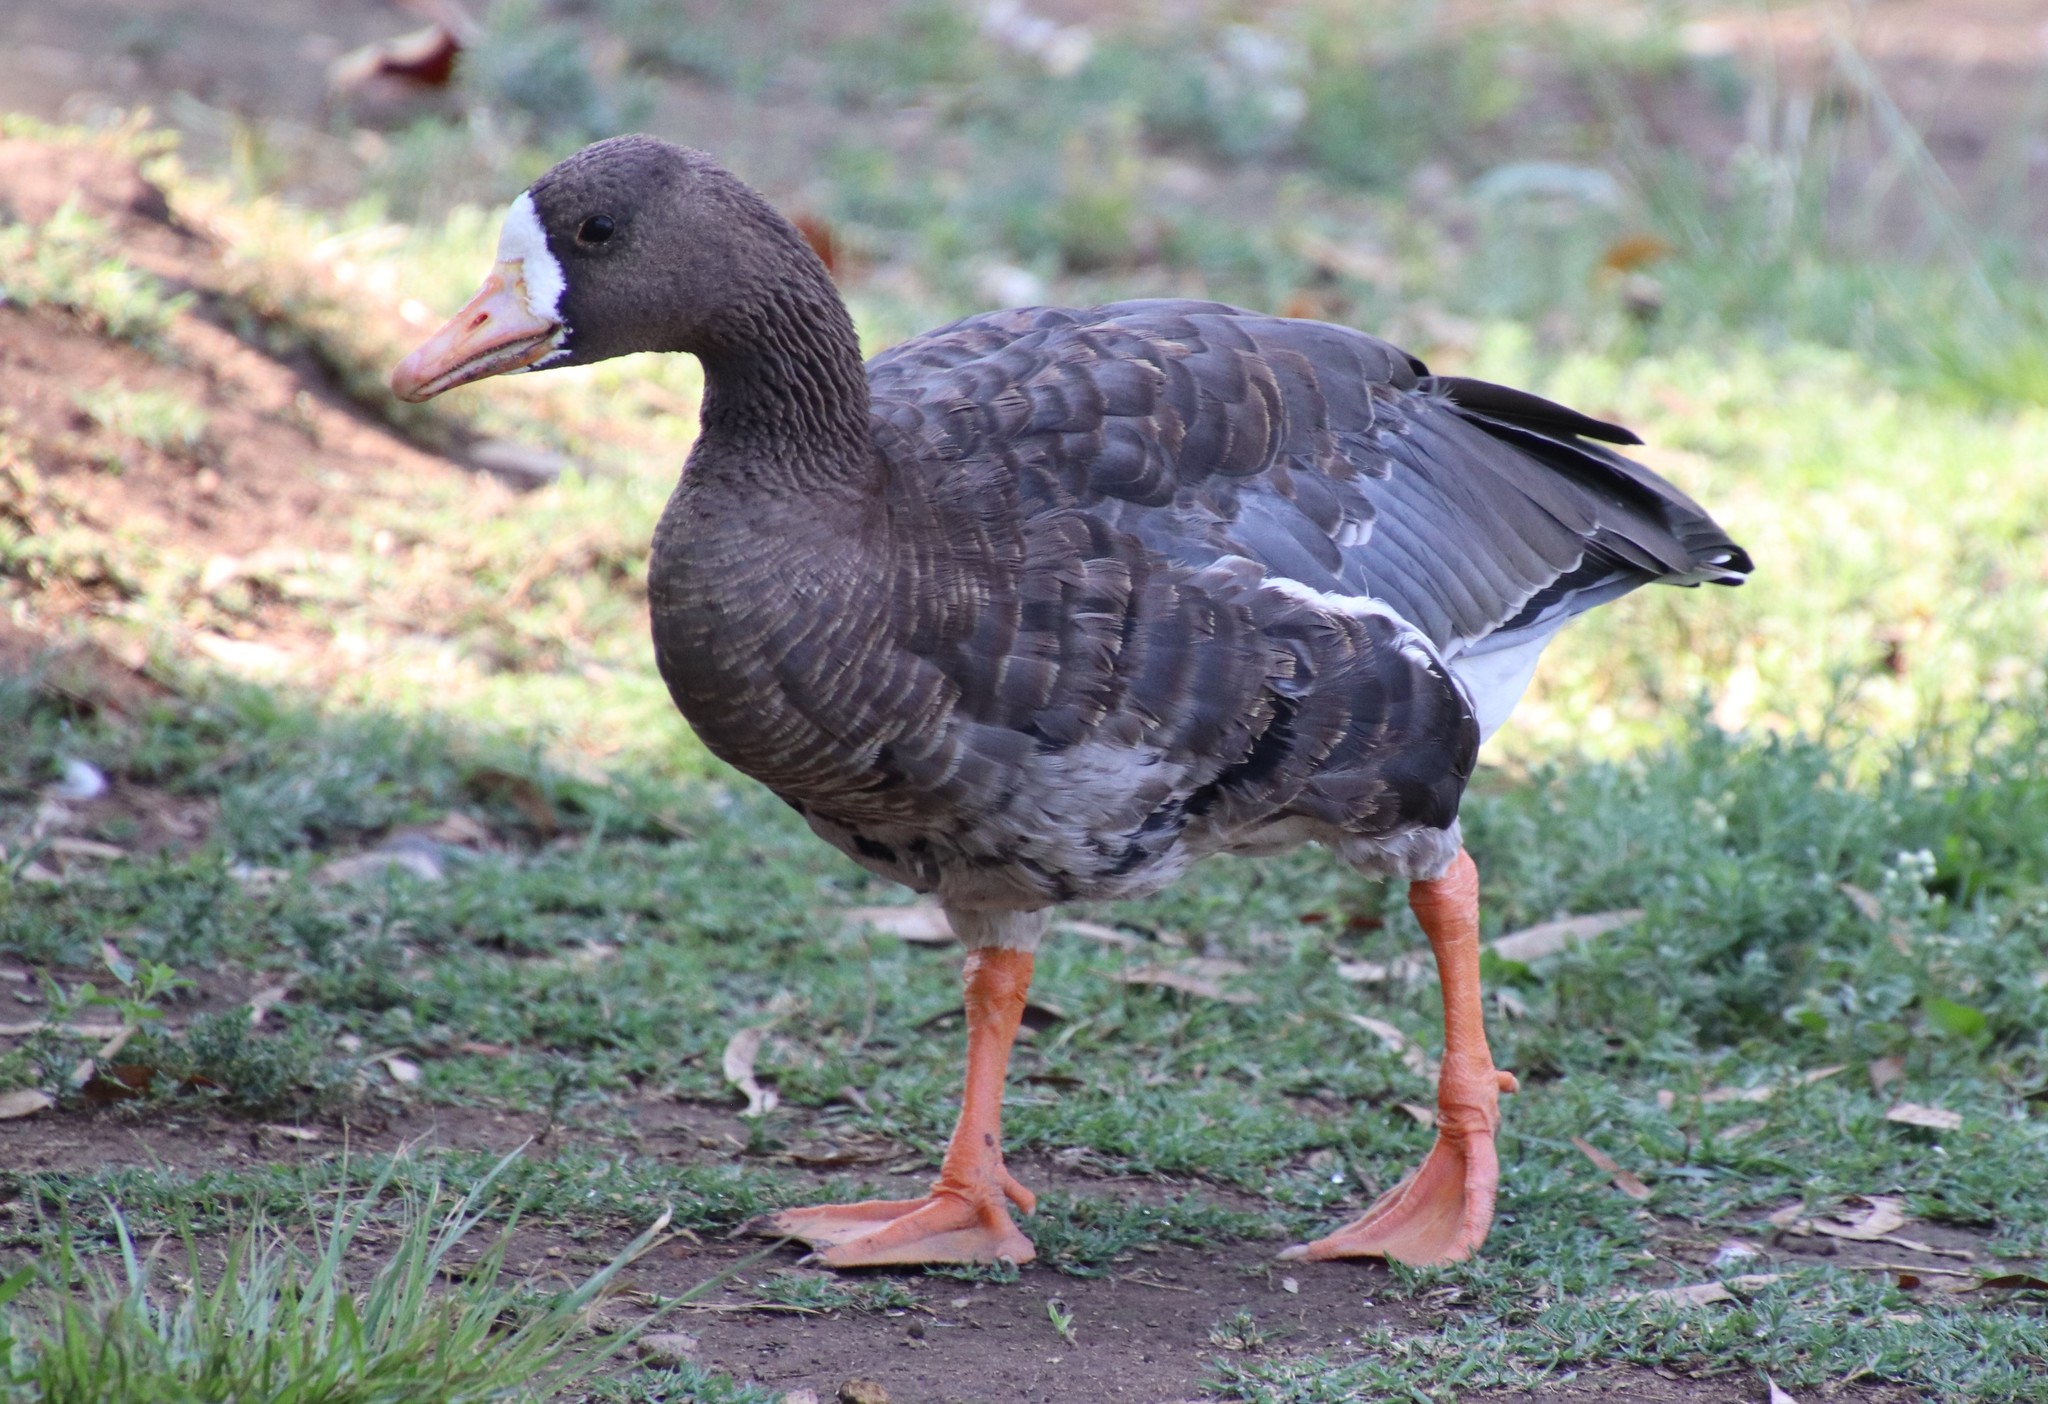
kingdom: Animalia
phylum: Chordata
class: Aves
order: Anseriformes
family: Anatidae
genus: Anser
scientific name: Anser albifrons
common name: Greater white-fronted goose
